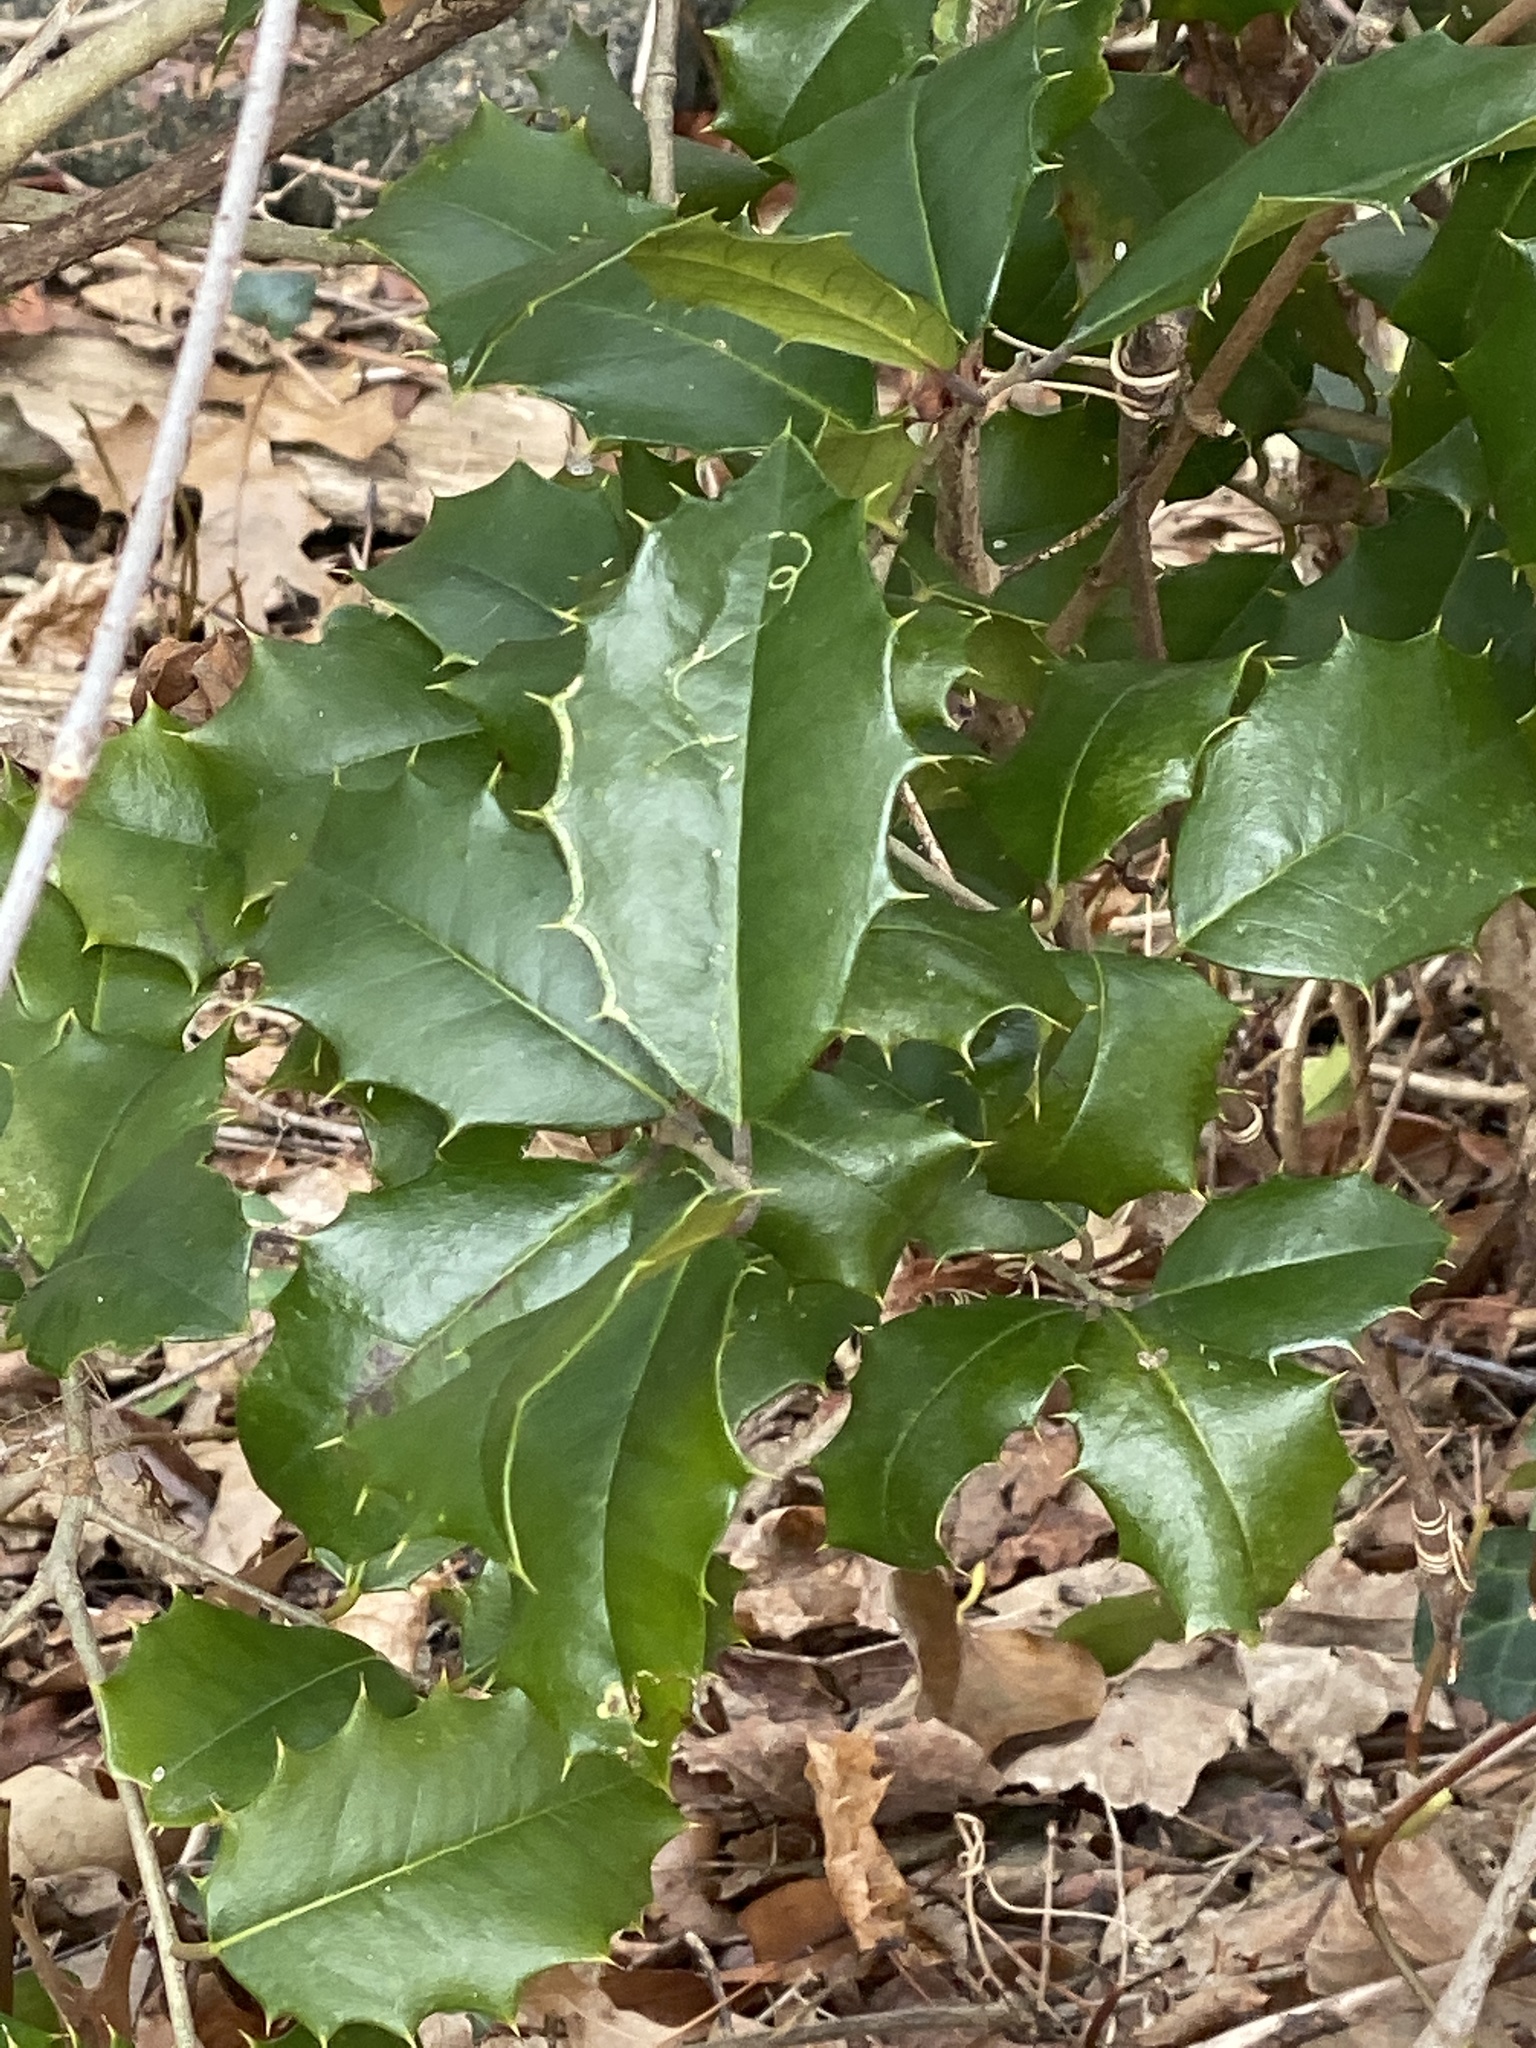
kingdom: Plantae
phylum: Tracheophyta
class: Magnoliopsida
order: Aquifoliales
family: Aquifoliaceae
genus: Ilex
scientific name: Ilex opaca
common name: American holly
